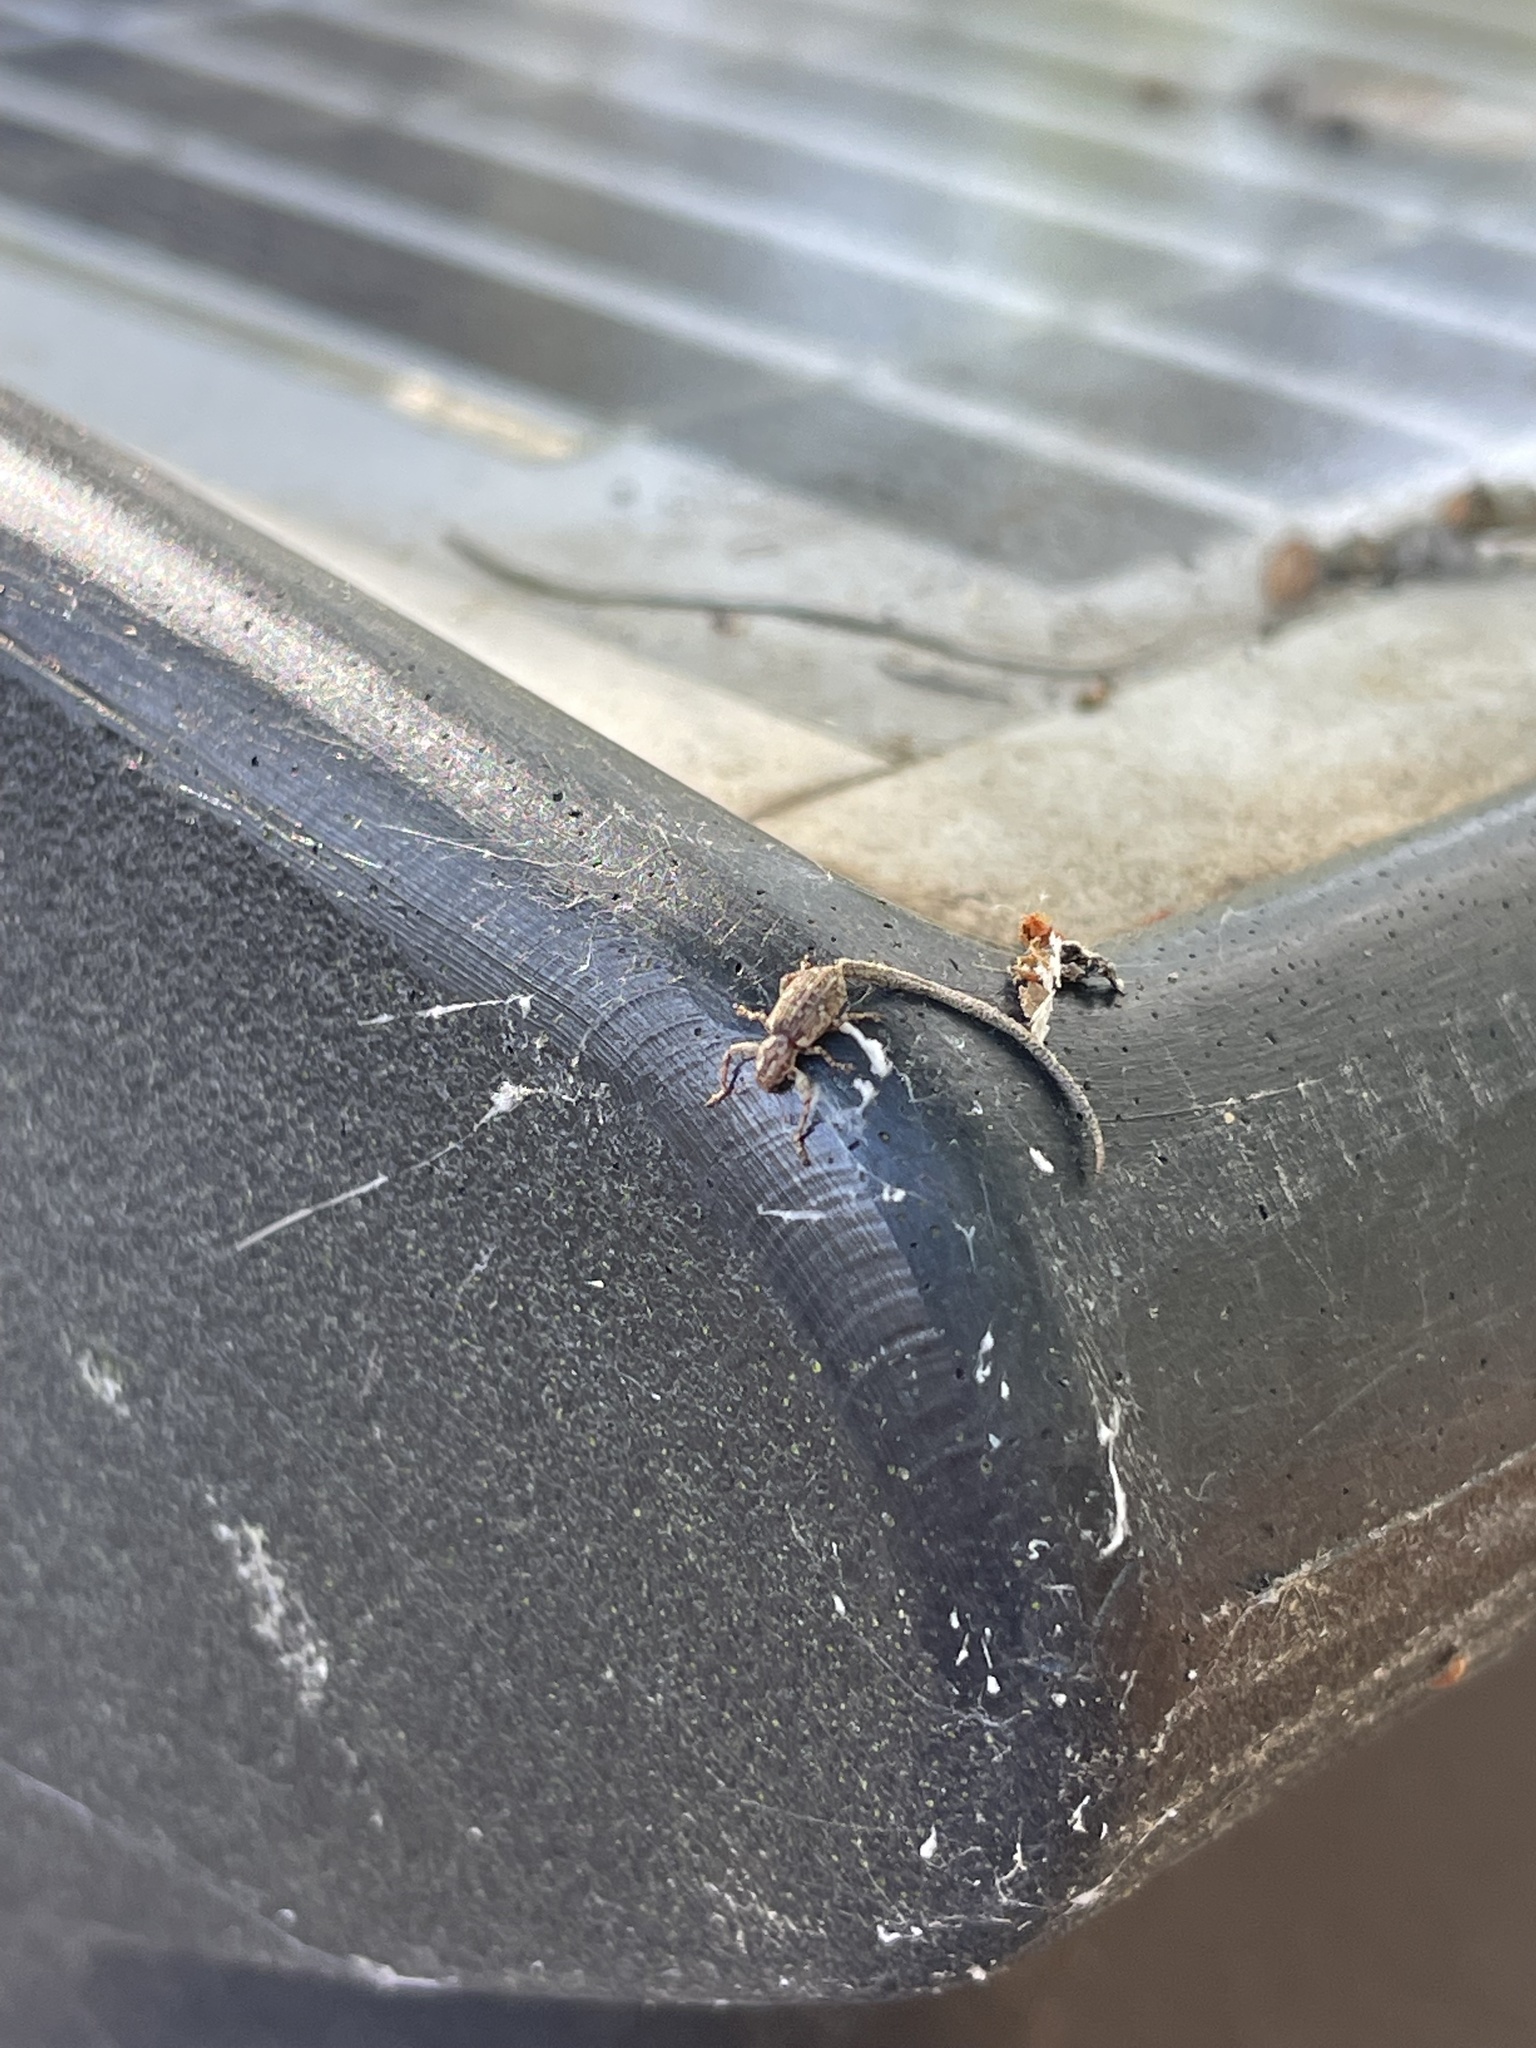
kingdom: Animalia
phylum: Arthropoda
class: Insecta
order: Coleoptera
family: Curculionidae
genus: Pandeleteius
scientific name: Pandeleteius hilaris
